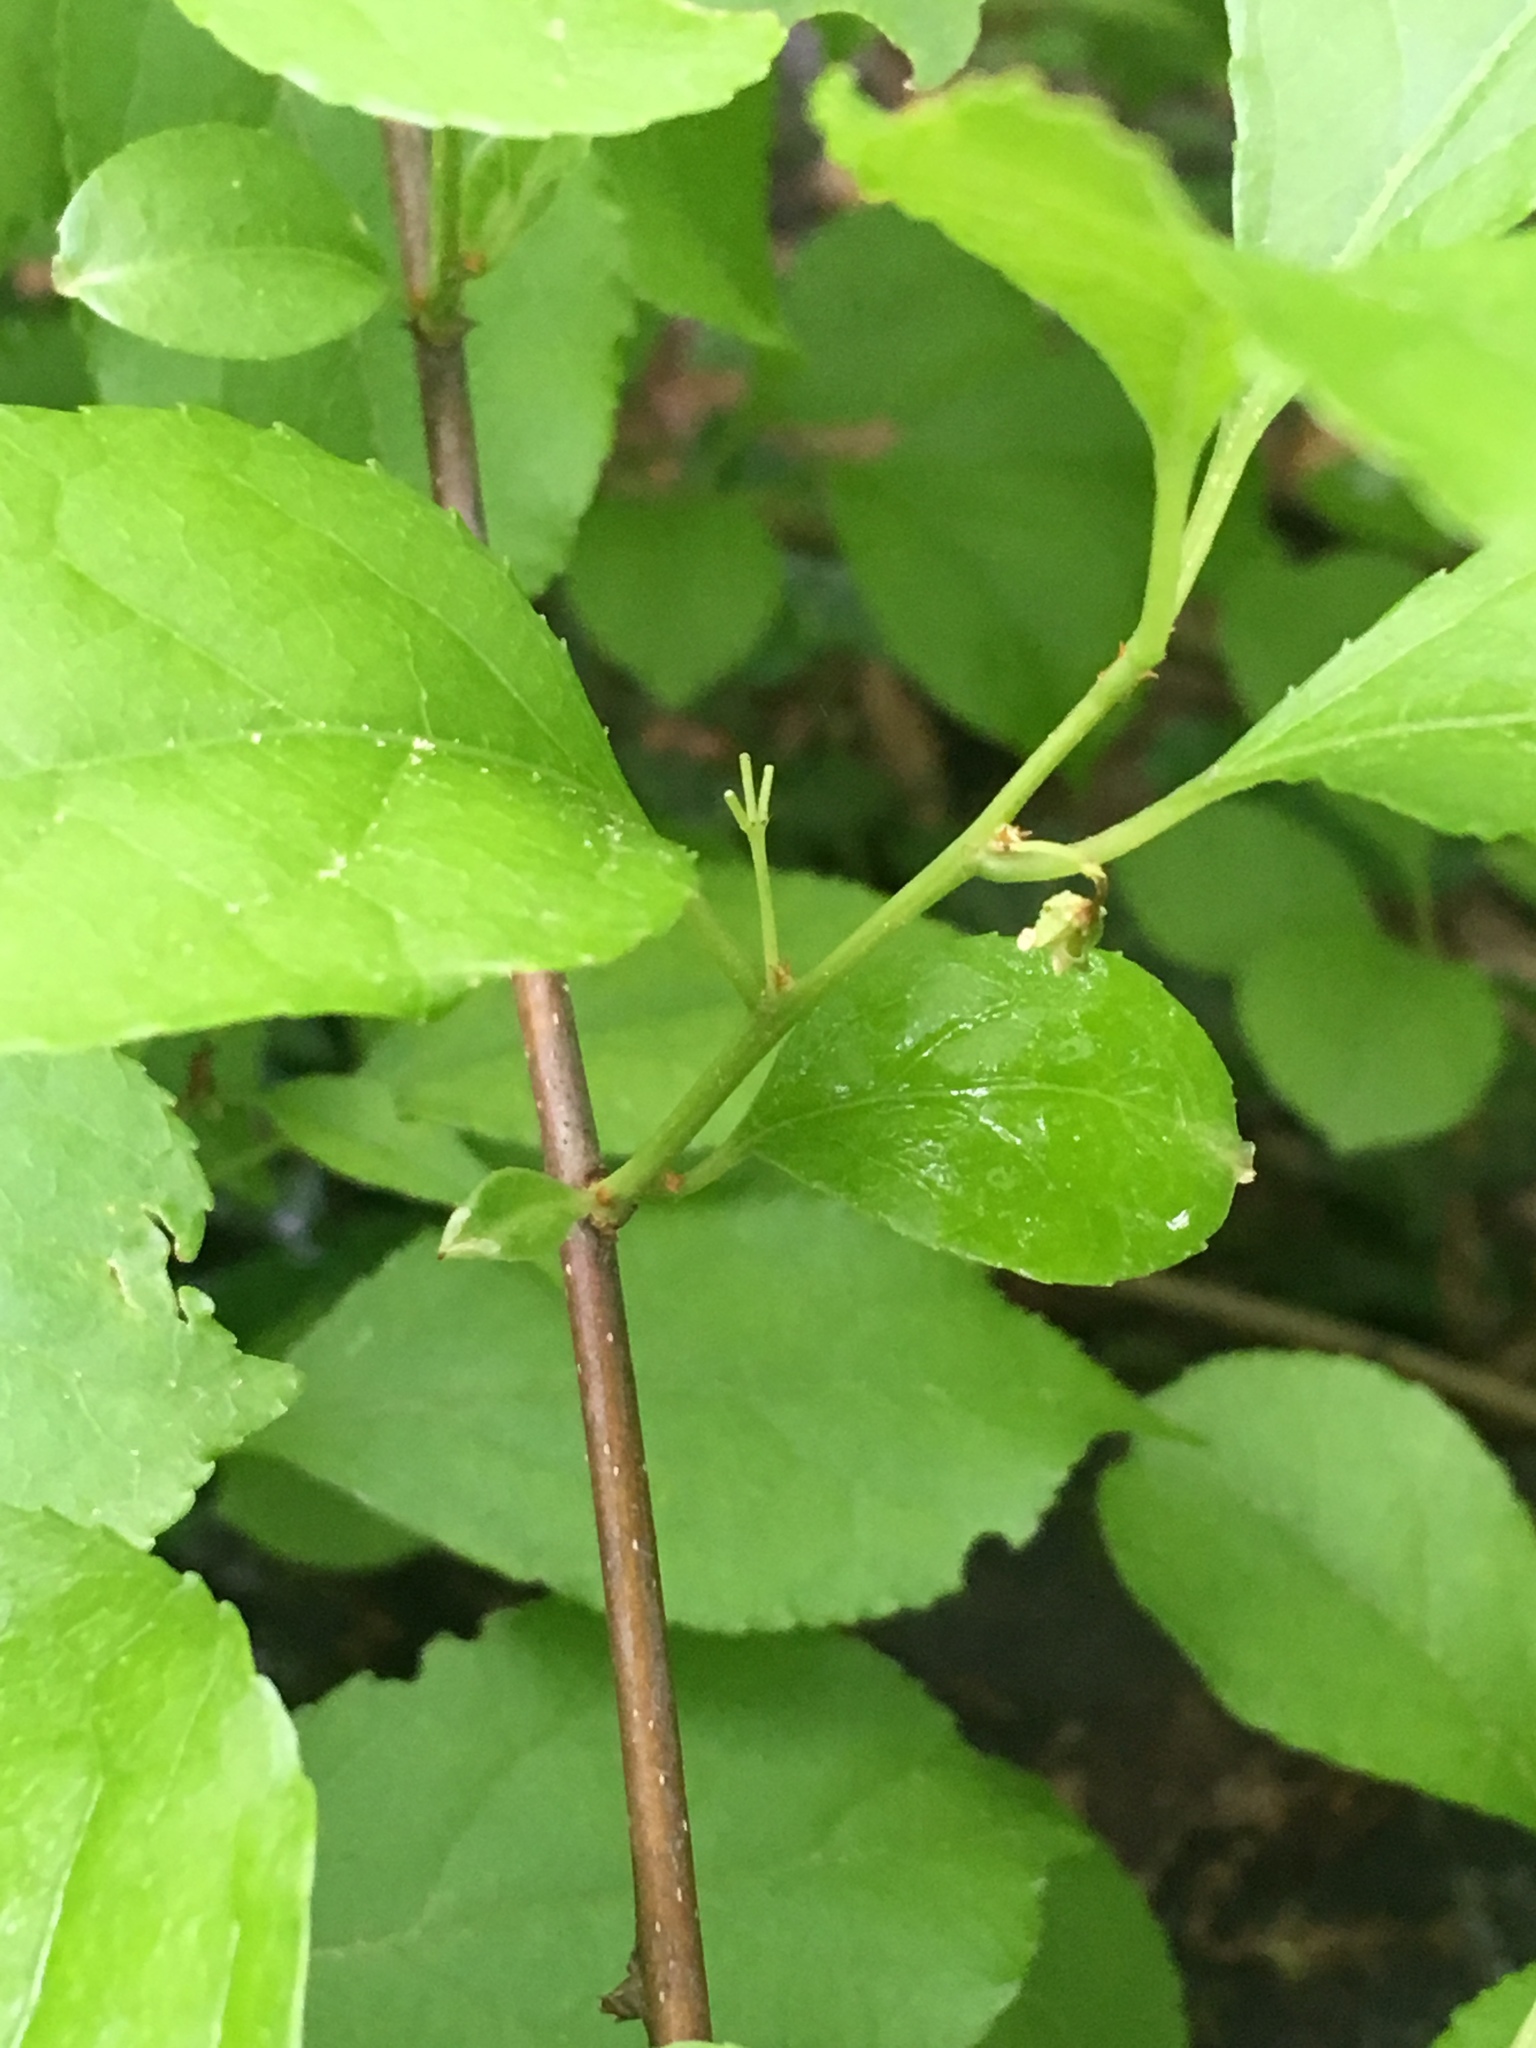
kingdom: Plantae
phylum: Tracheophyta
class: Magnoliopsida
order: Celastrales
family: Celastraceae
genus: Celastrus
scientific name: Celastrus orbiculatus
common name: Oriental bittersweet
